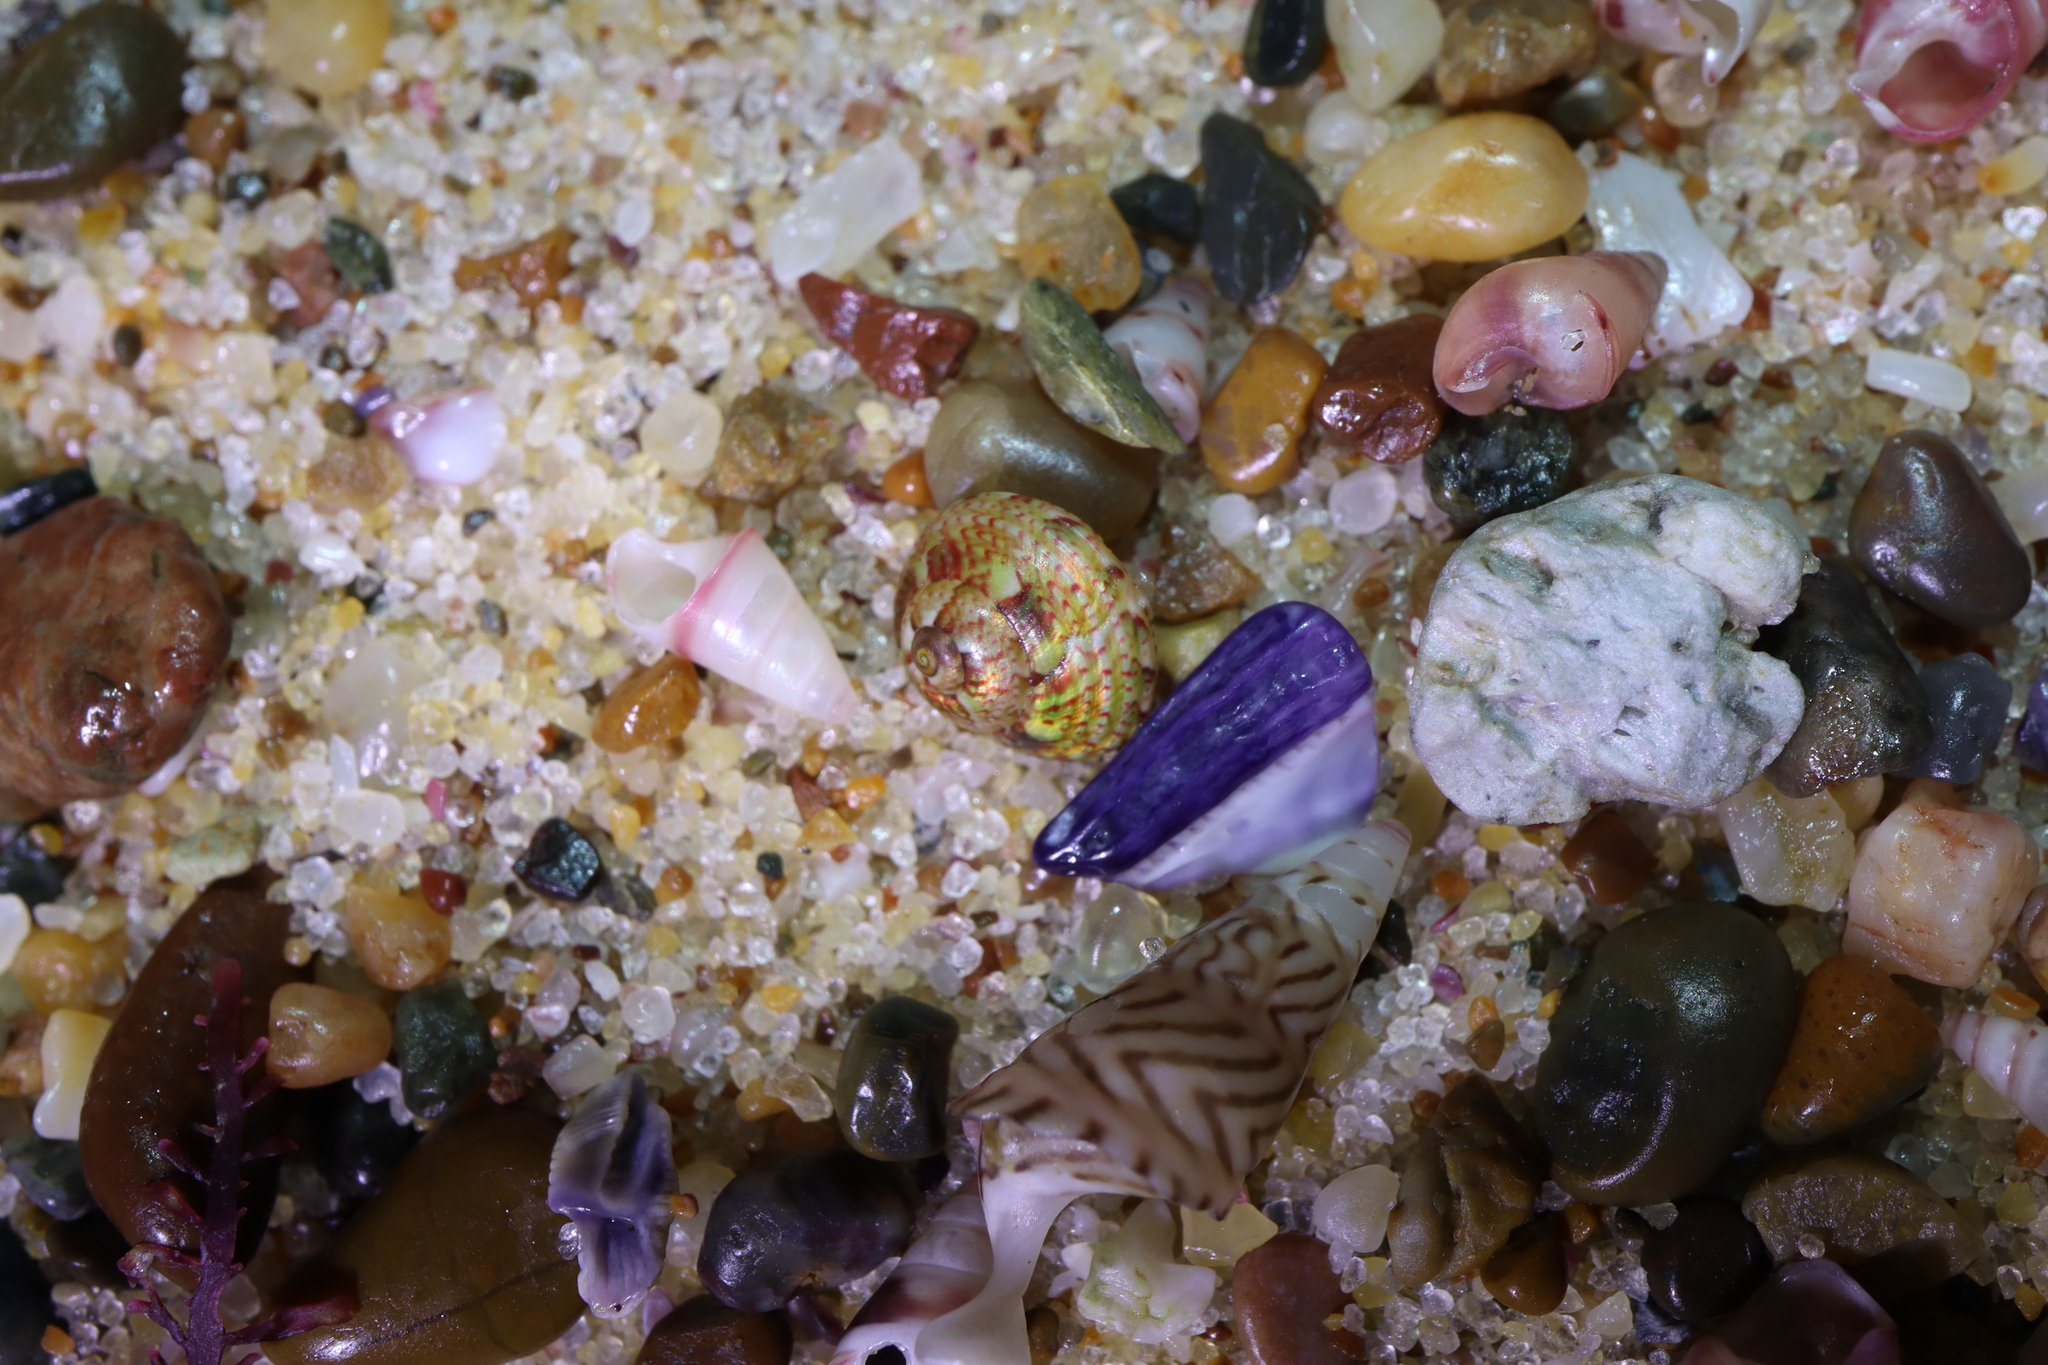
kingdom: Animalia
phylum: Mollusca
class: Gastropoda
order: Trochida
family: Trochidae
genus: Cantharidella
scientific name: Cantharidella picturata
